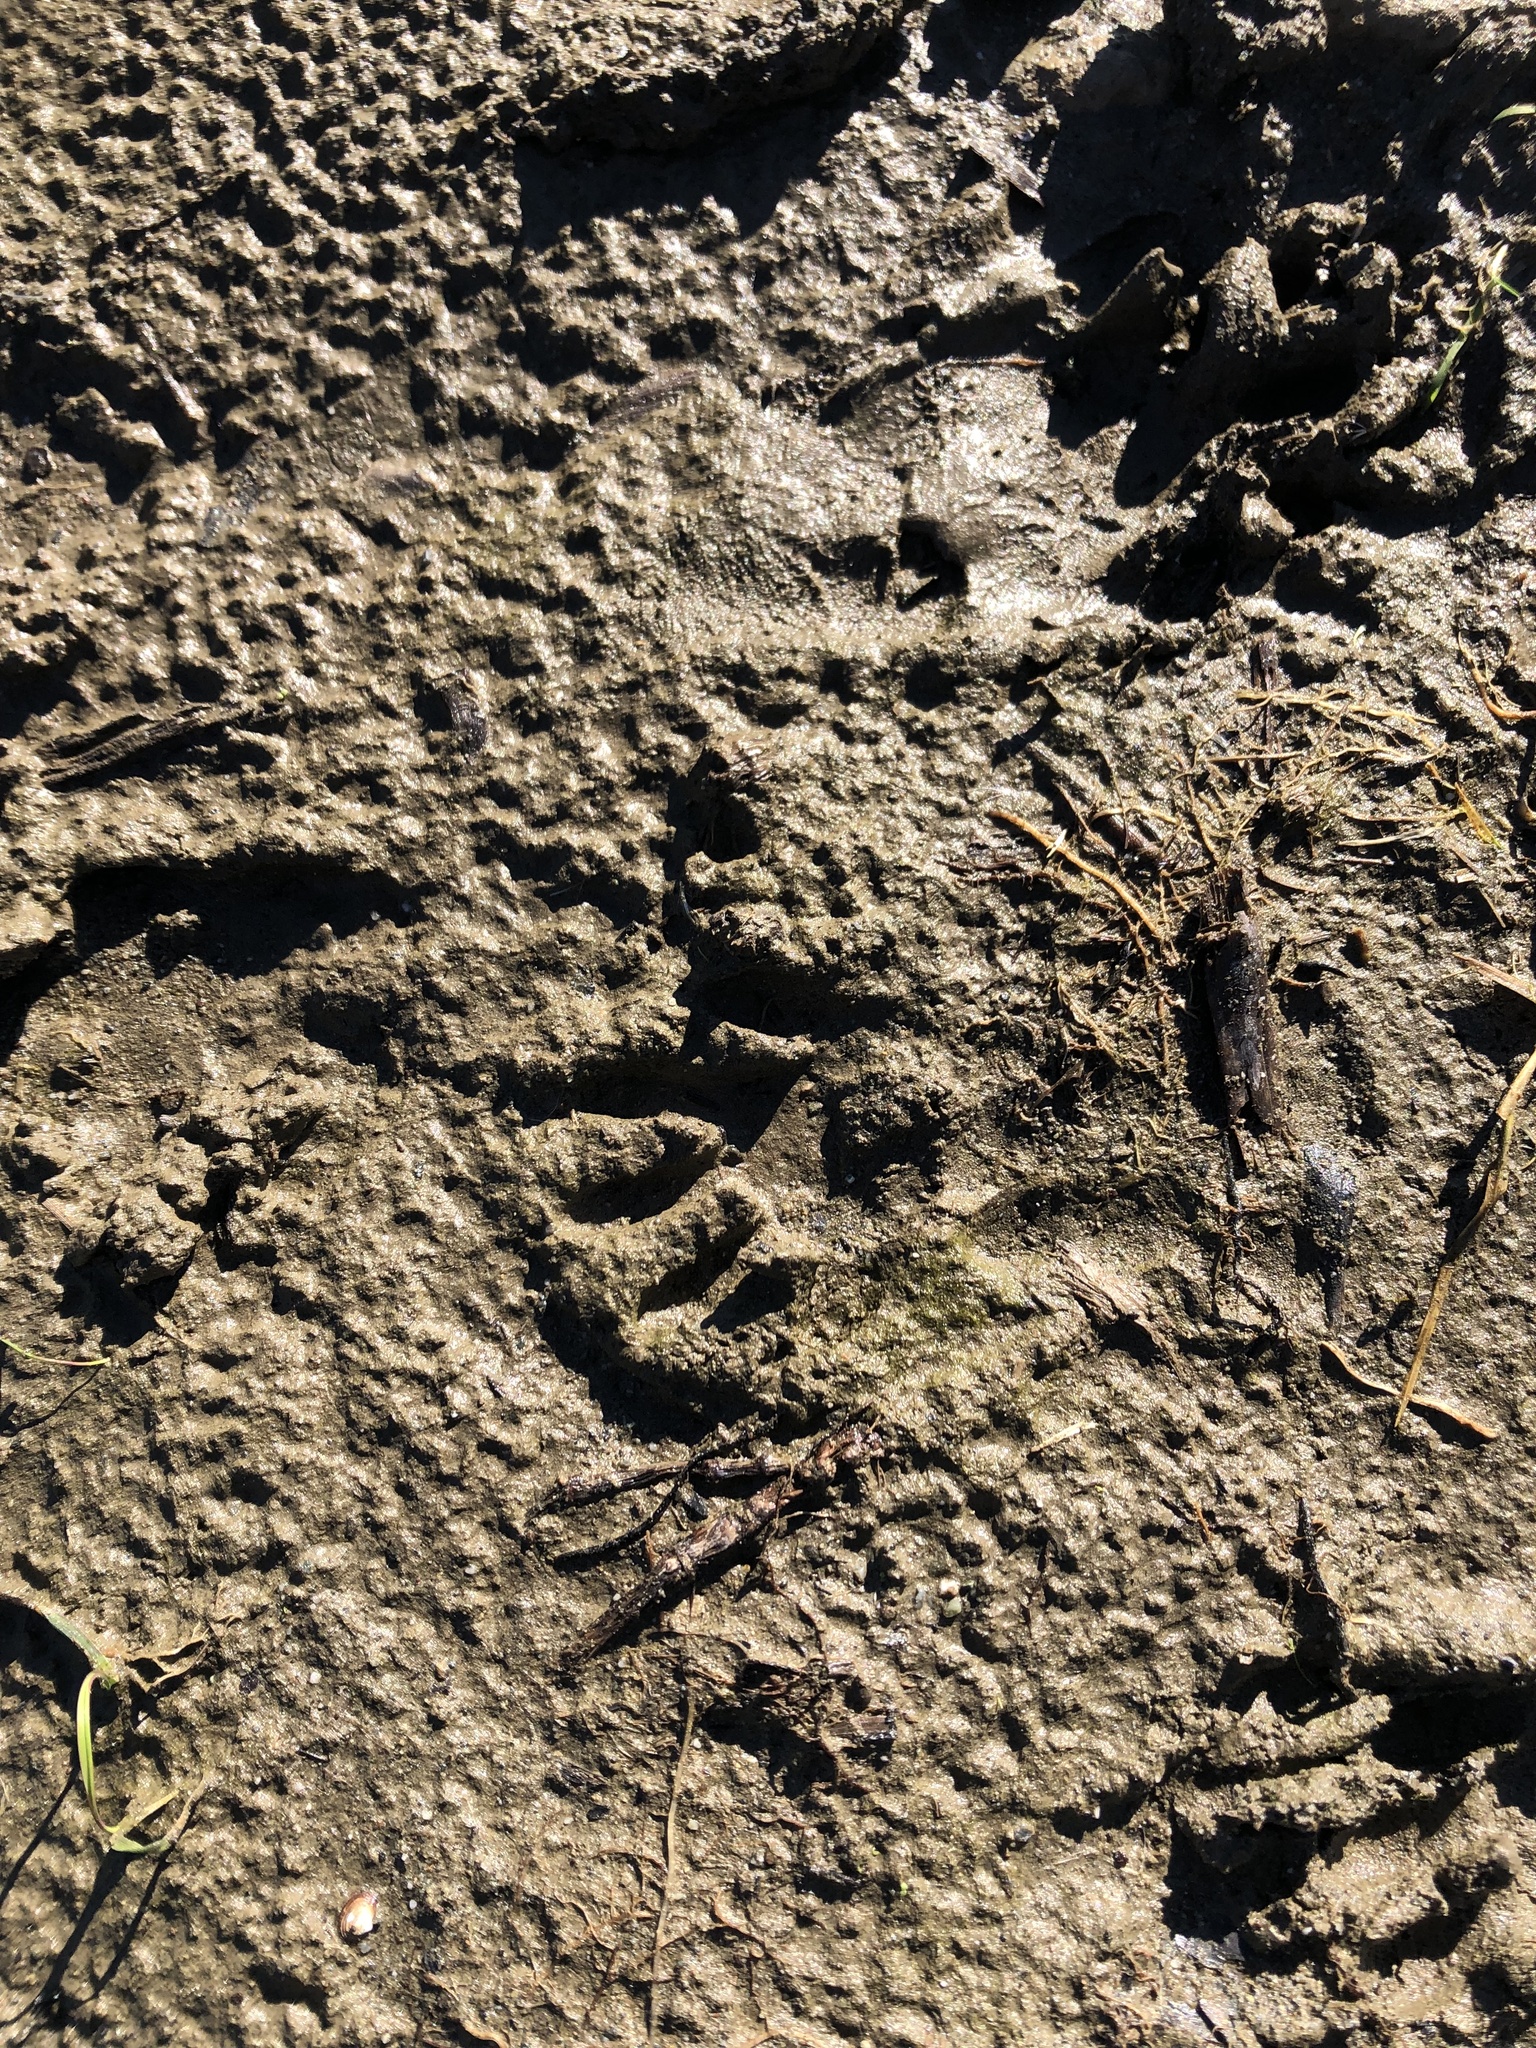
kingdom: Animalia
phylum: Chordata
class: Mammalia
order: Carnivora
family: Procyonidae
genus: Procyon
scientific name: Procyon lotor
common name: Raccoon
